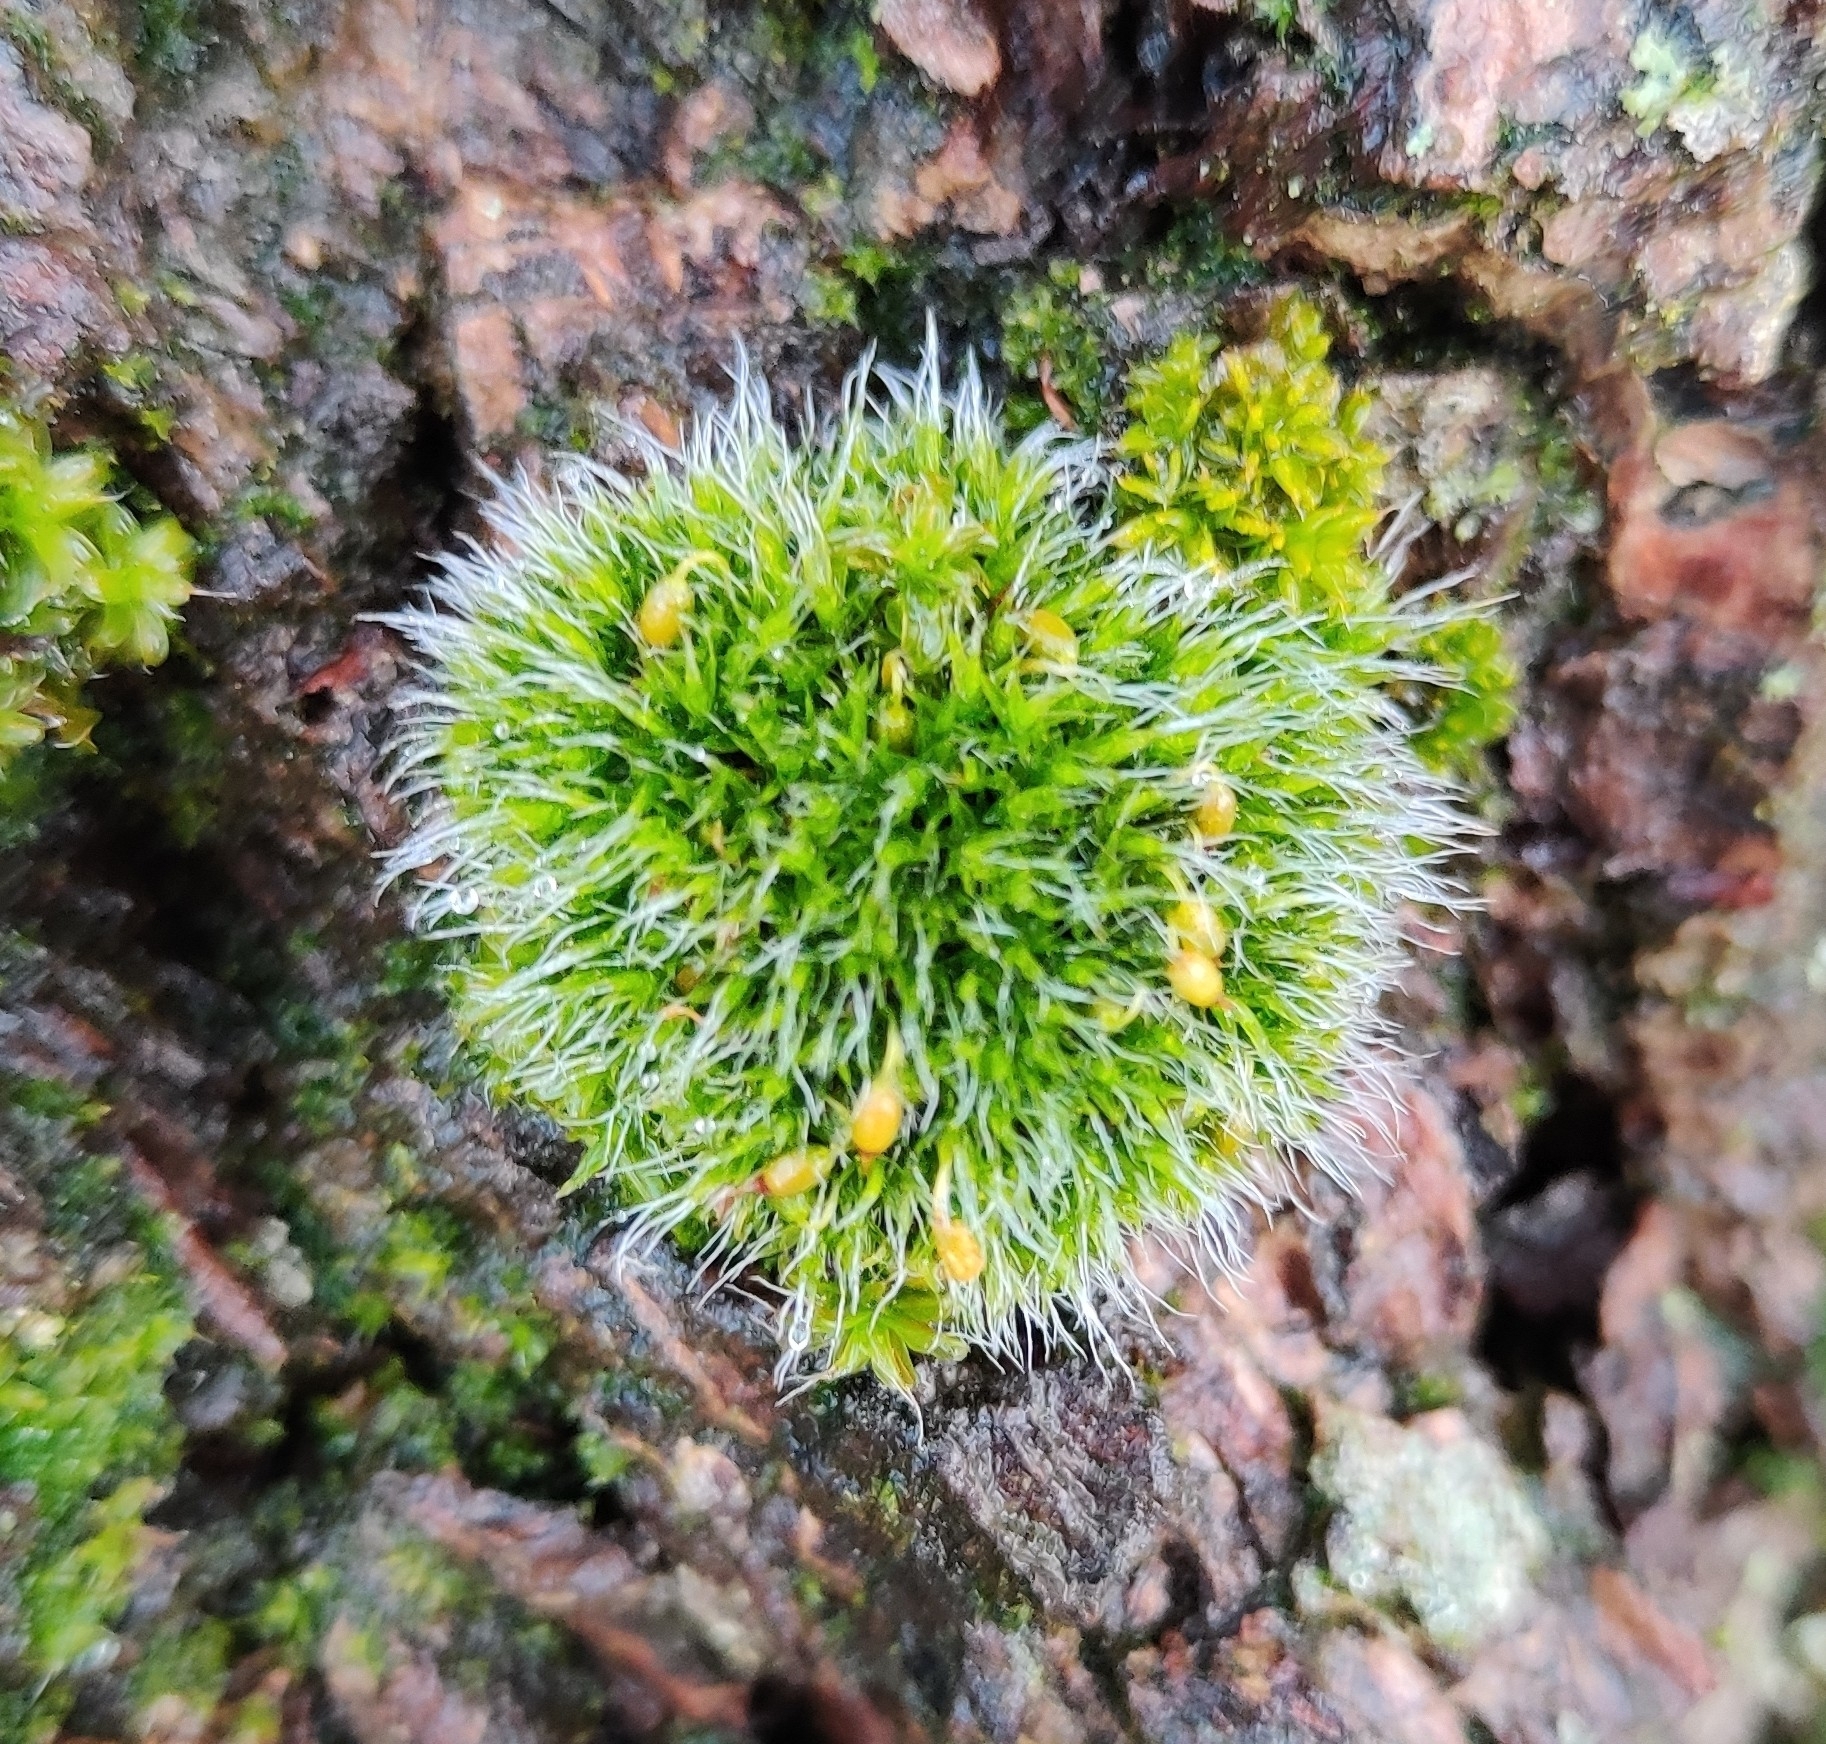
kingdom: Plantae
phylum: Bryophyta
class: Bryopsida
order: Grimmiales
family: Grimmiaceae
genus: Grimmia
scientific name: Grimmia pulvinata
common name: Grey-cushioned grimmia
